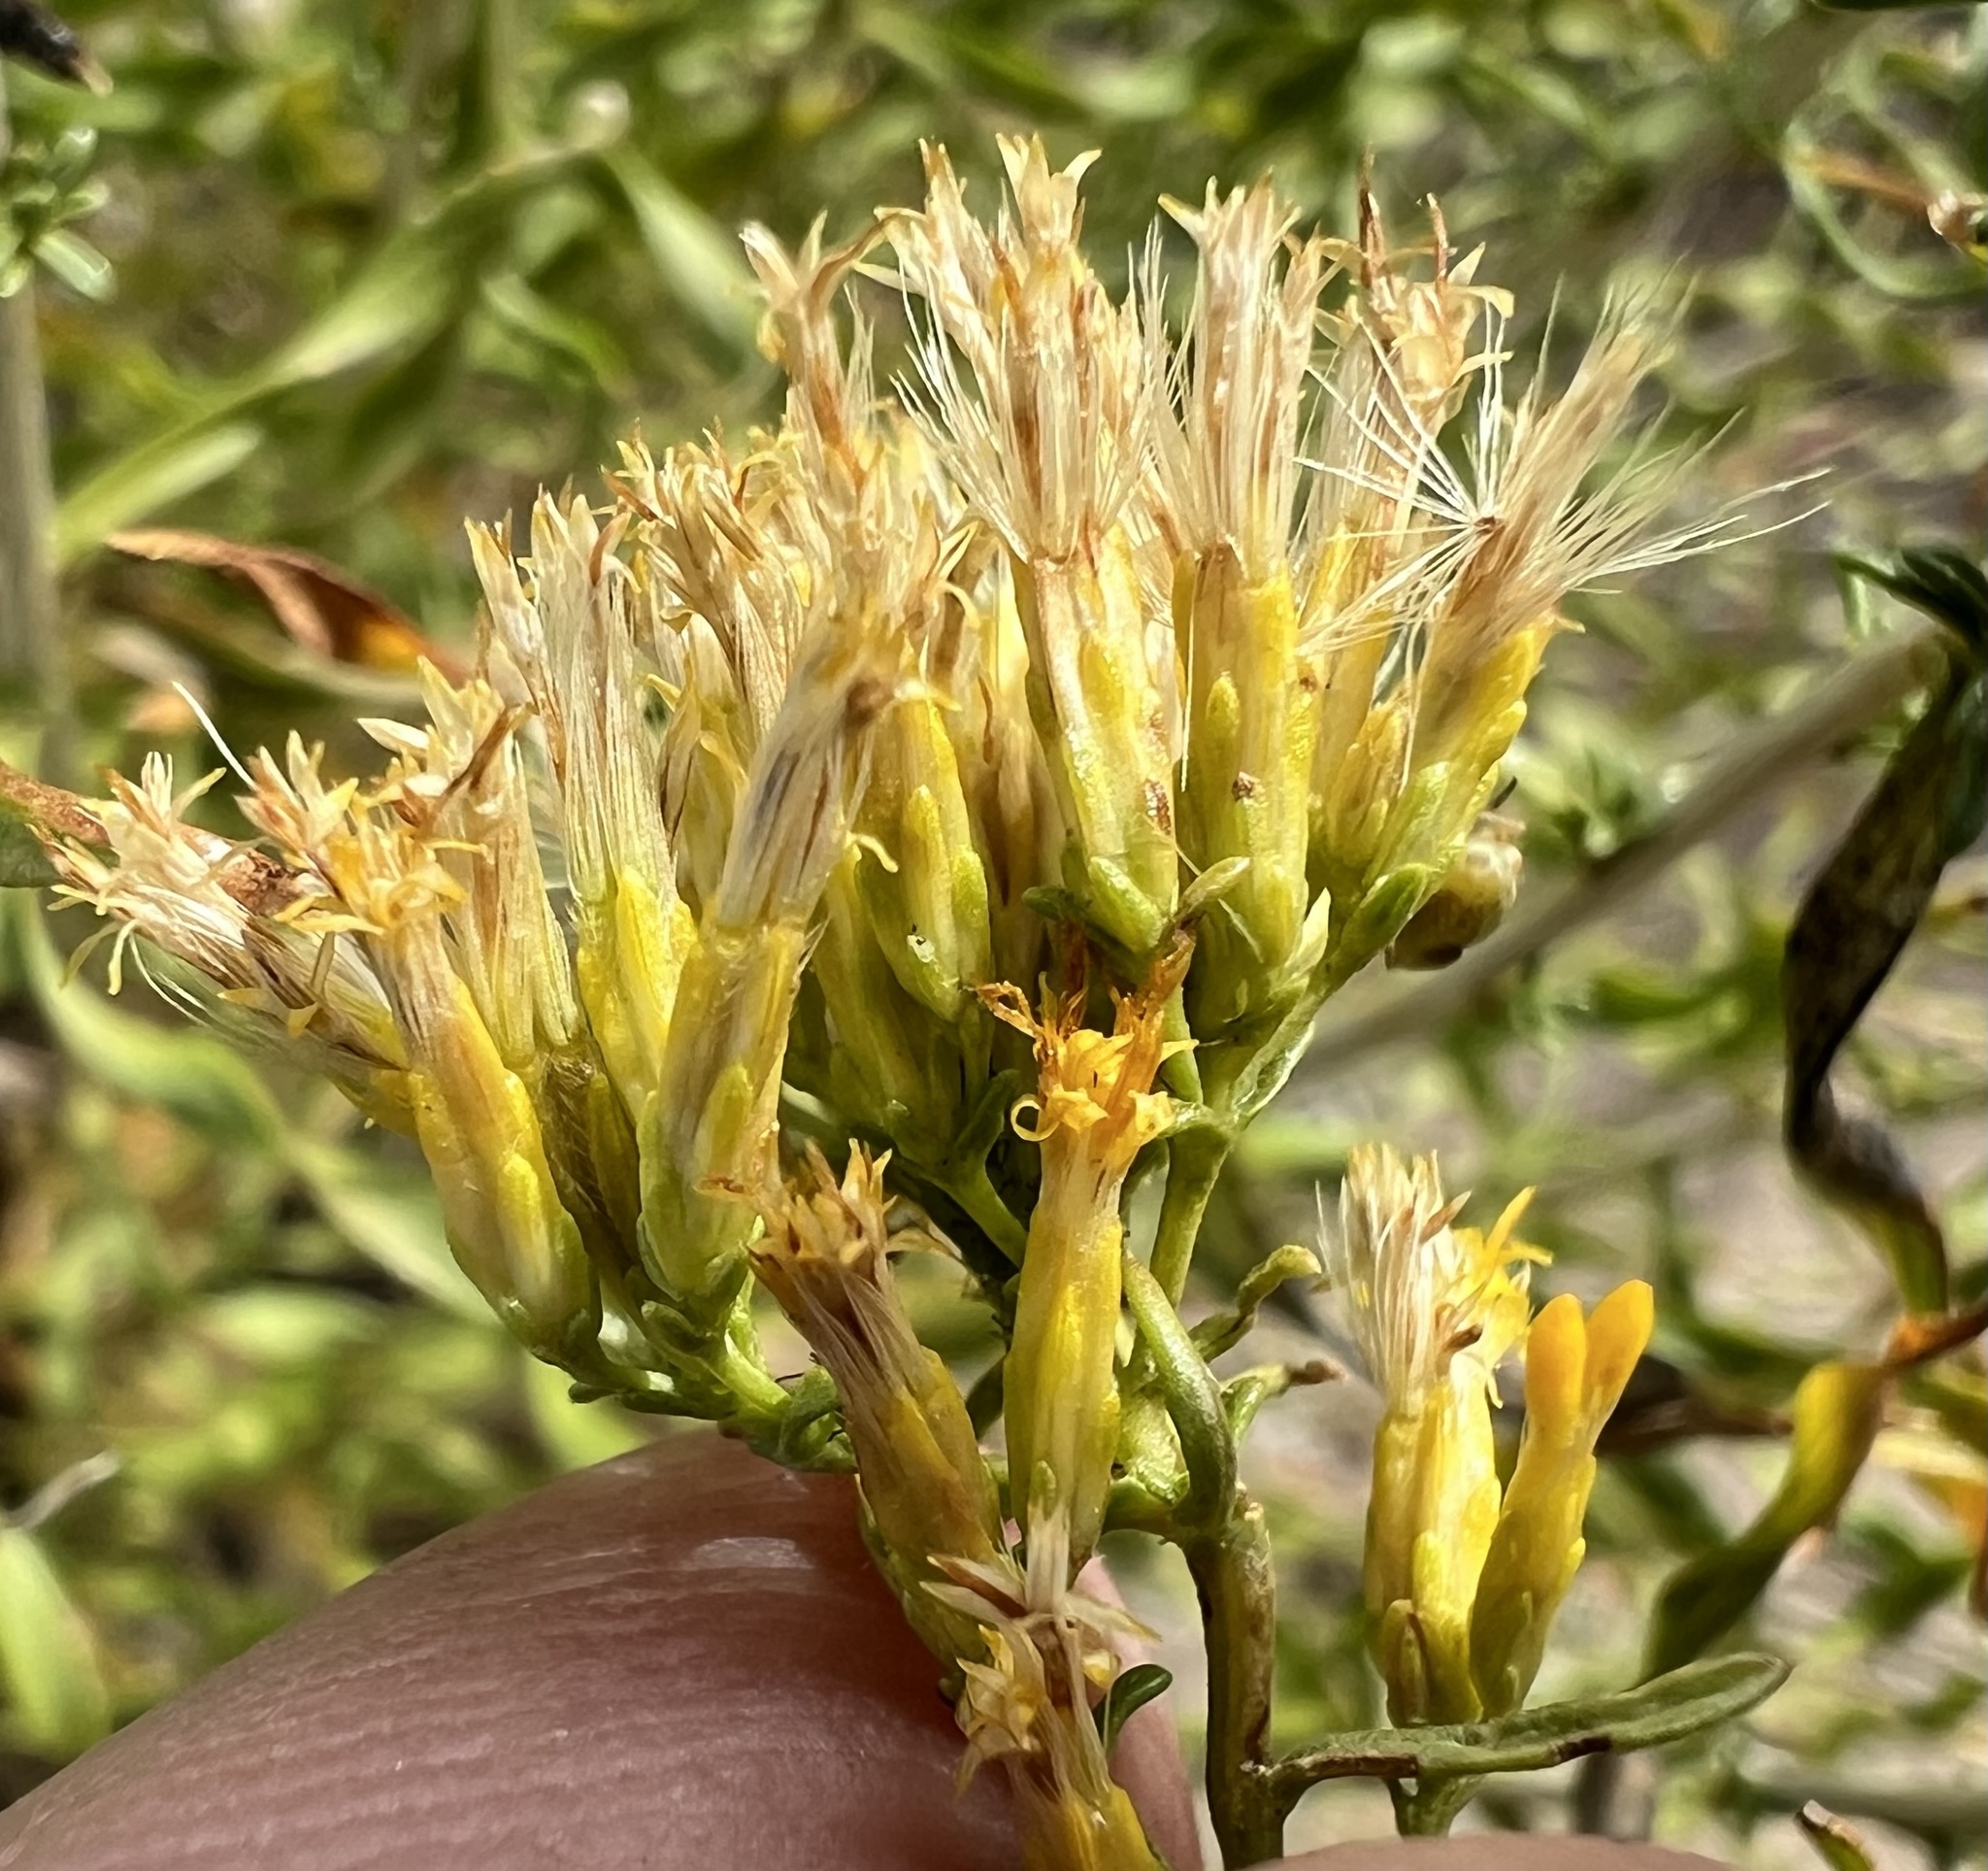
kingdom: Plantae
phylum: Tracheophyta
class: Magnoliopsida
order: Asterales
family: Asteraceae
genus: Chrysothamnus
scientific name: Chrysothamnus viscidiflorus
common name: Yellow rabbitbrush
